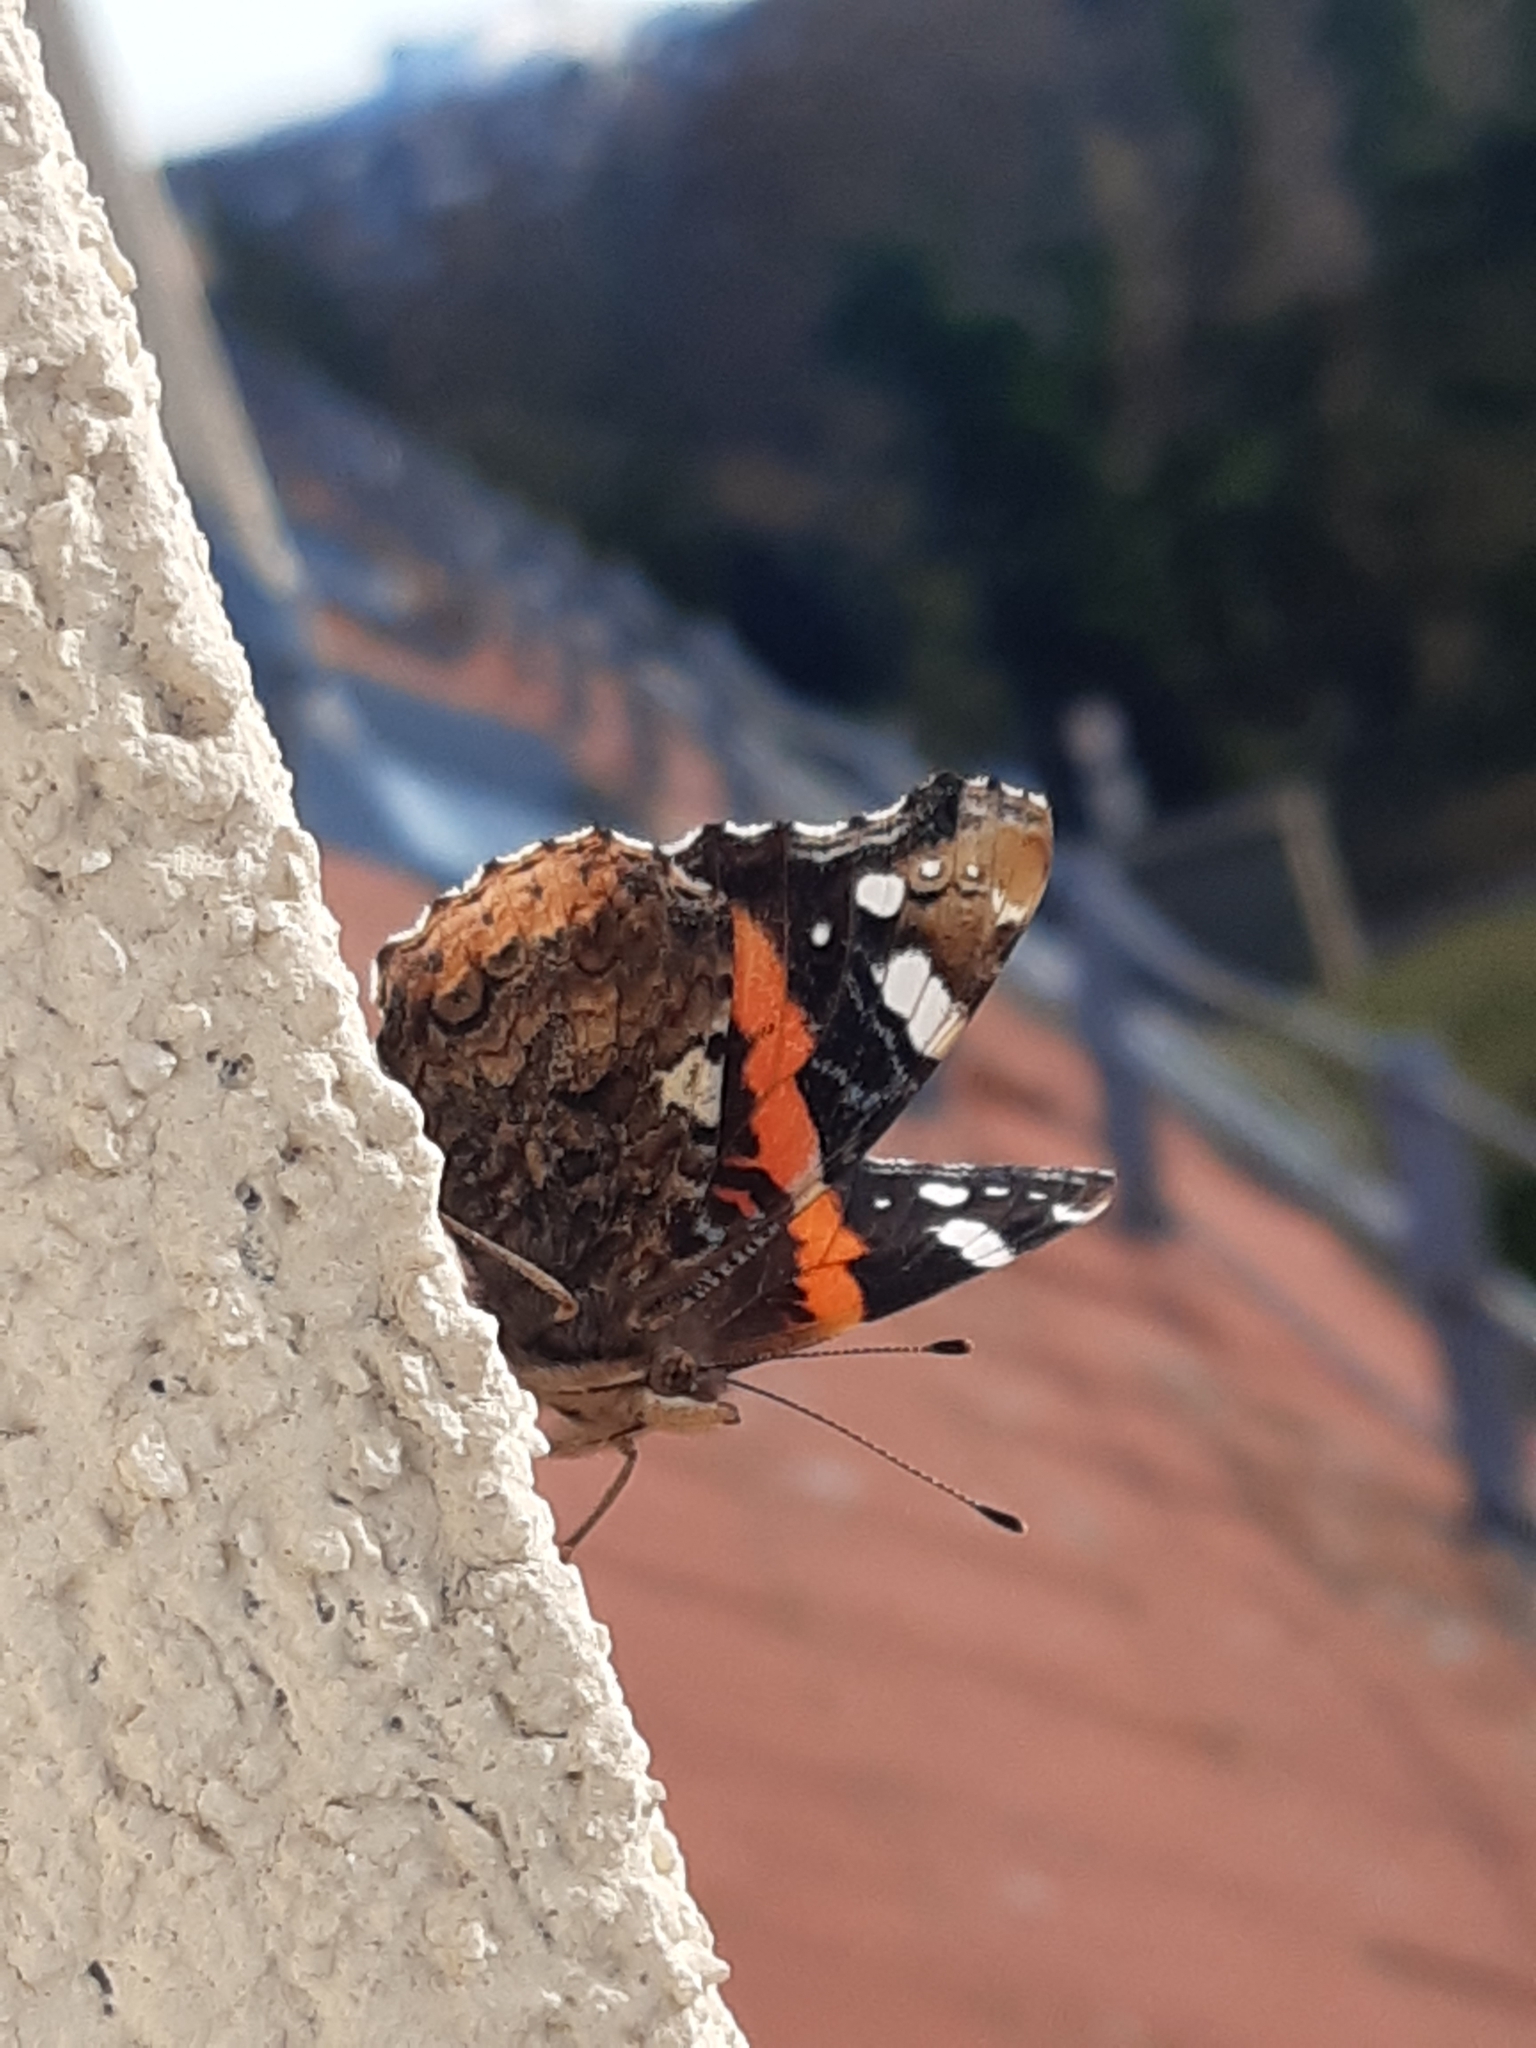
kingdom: Animalia
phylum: Arthropoda
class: Insecta
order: Lepidoptera
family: Nymphalidae
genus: Vanessa
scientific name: Vanessa atalanta
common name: Red admiral
